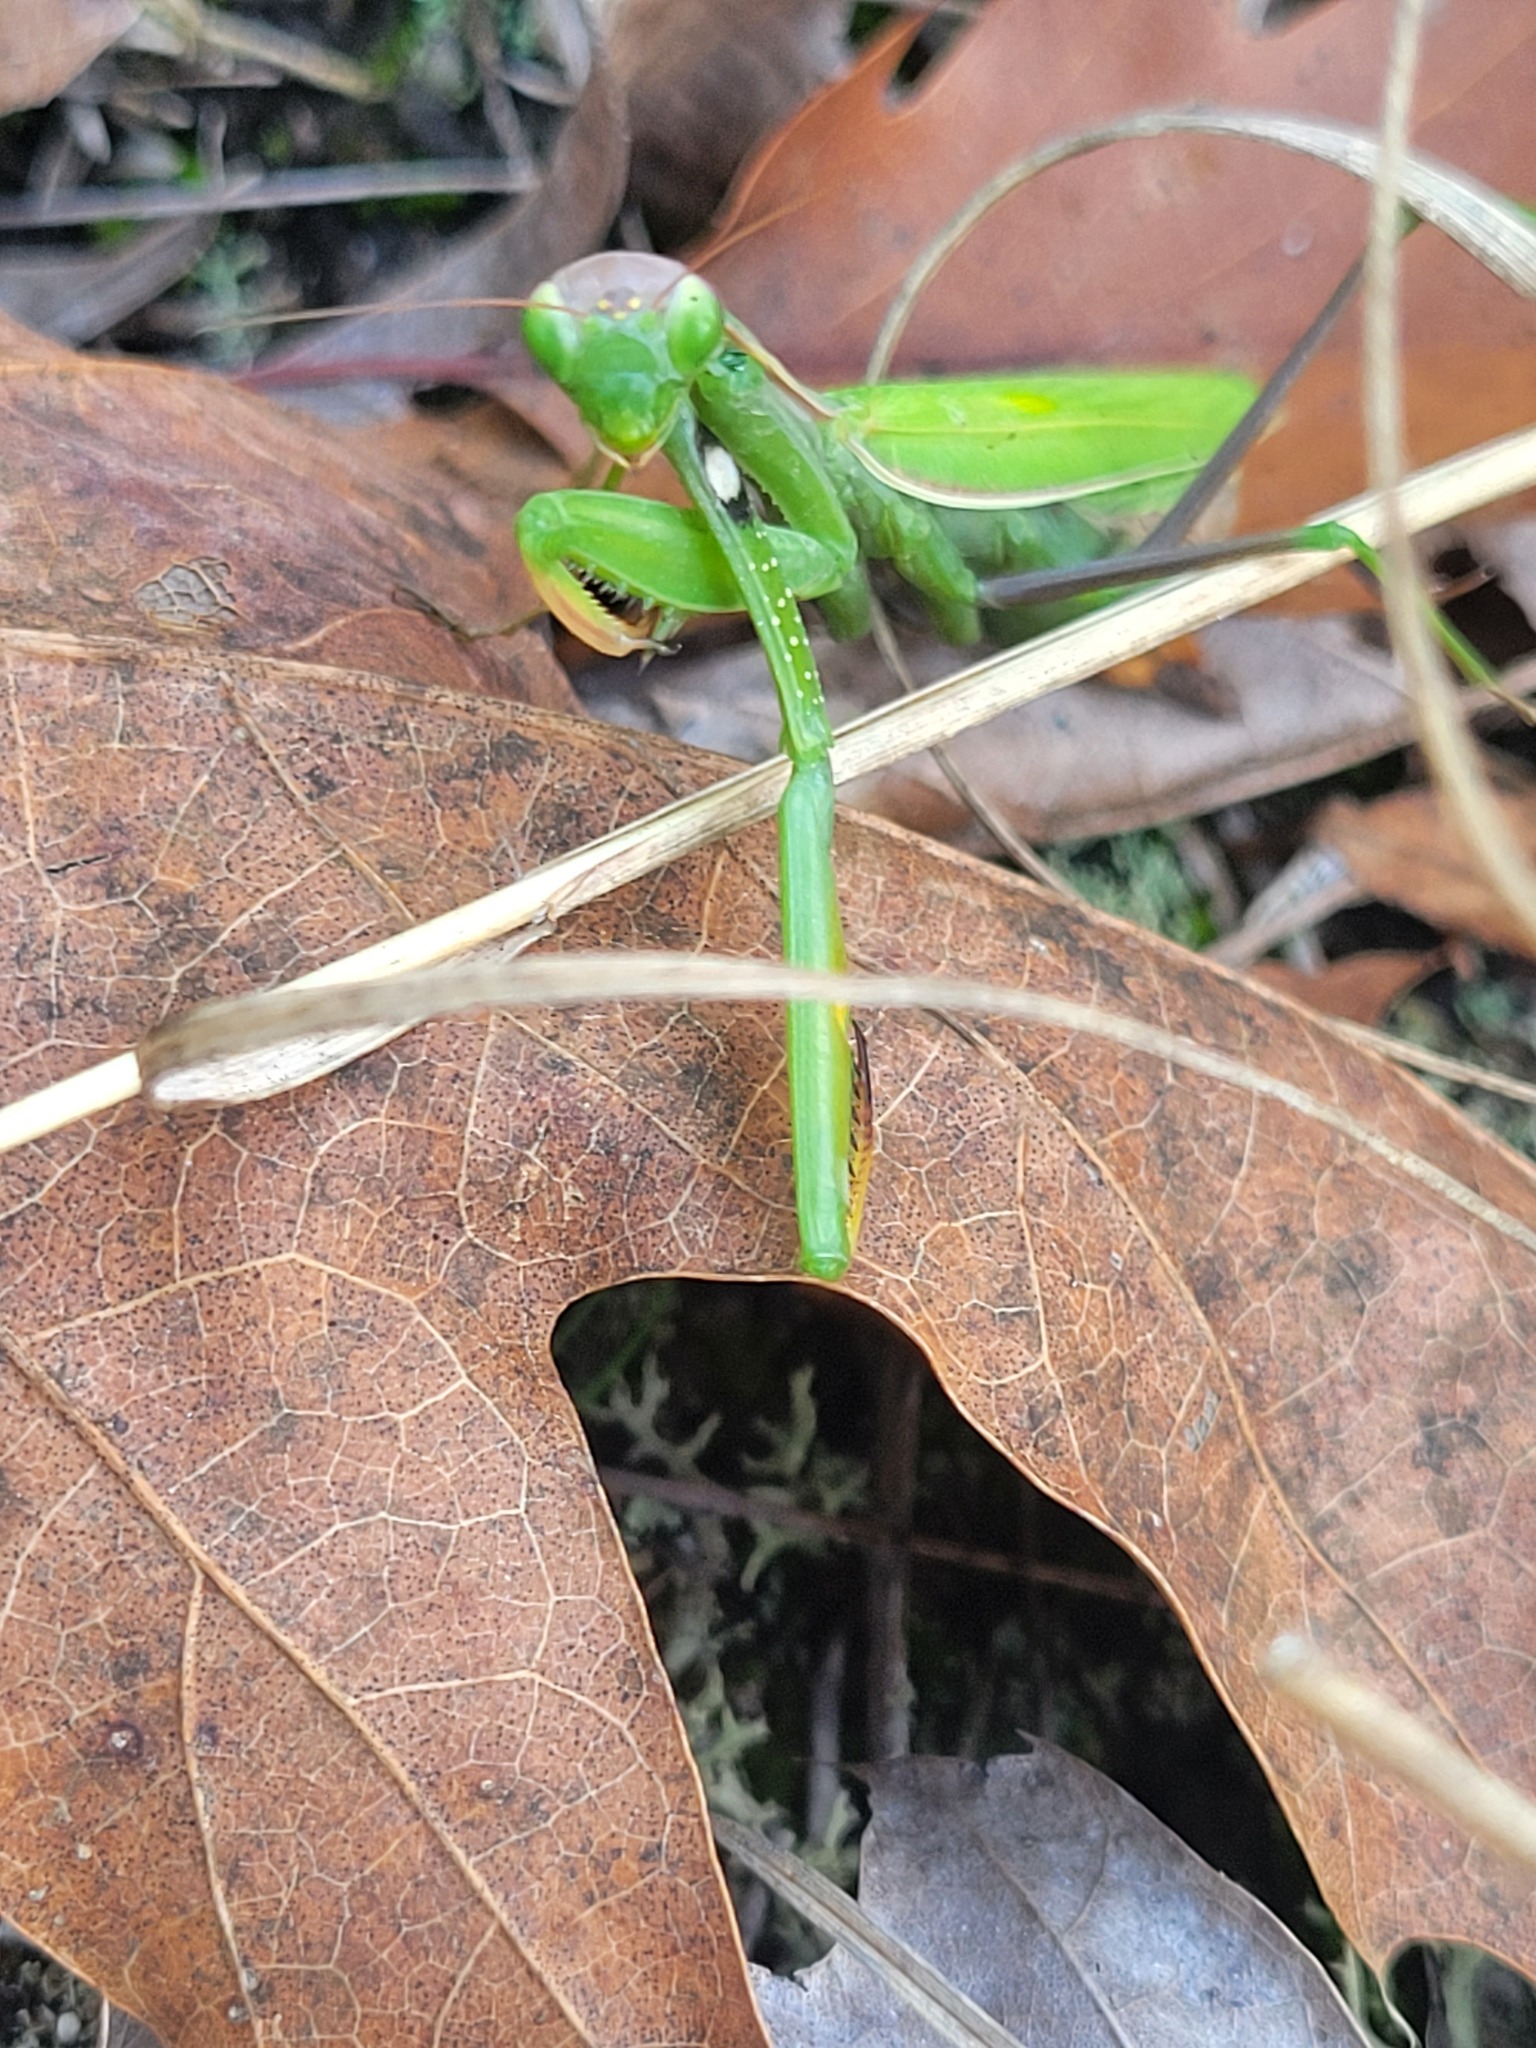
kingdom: Animalia
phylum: Arthropoda
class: Insecta
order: Mantodea
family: Mantidae
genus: Mantis
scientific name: Mantis religiosa
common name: Praying mantis
